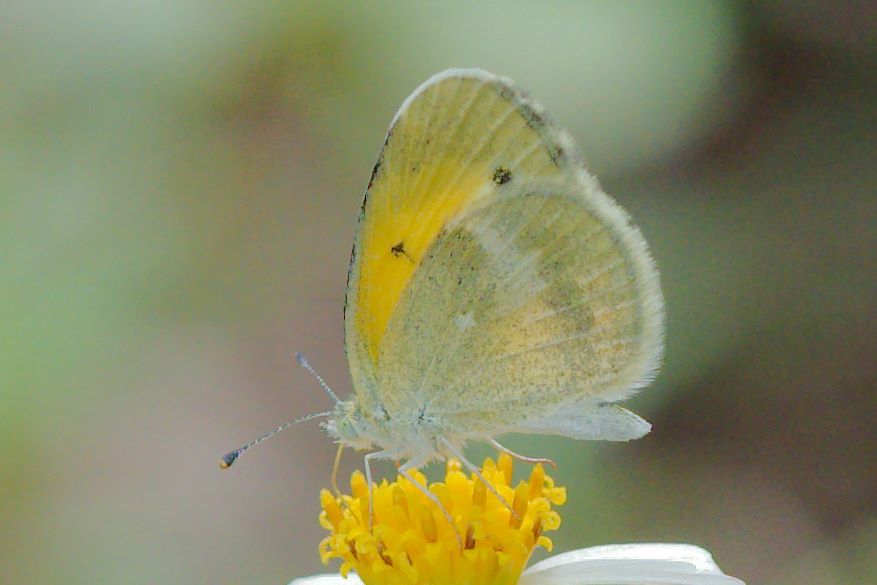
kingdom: Animalia
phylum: Arthropoda
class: Insecta
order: Lepidoptera
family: Pieridae
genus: Nathalis
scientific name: Nathalis iole
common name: Dainty sulphur
